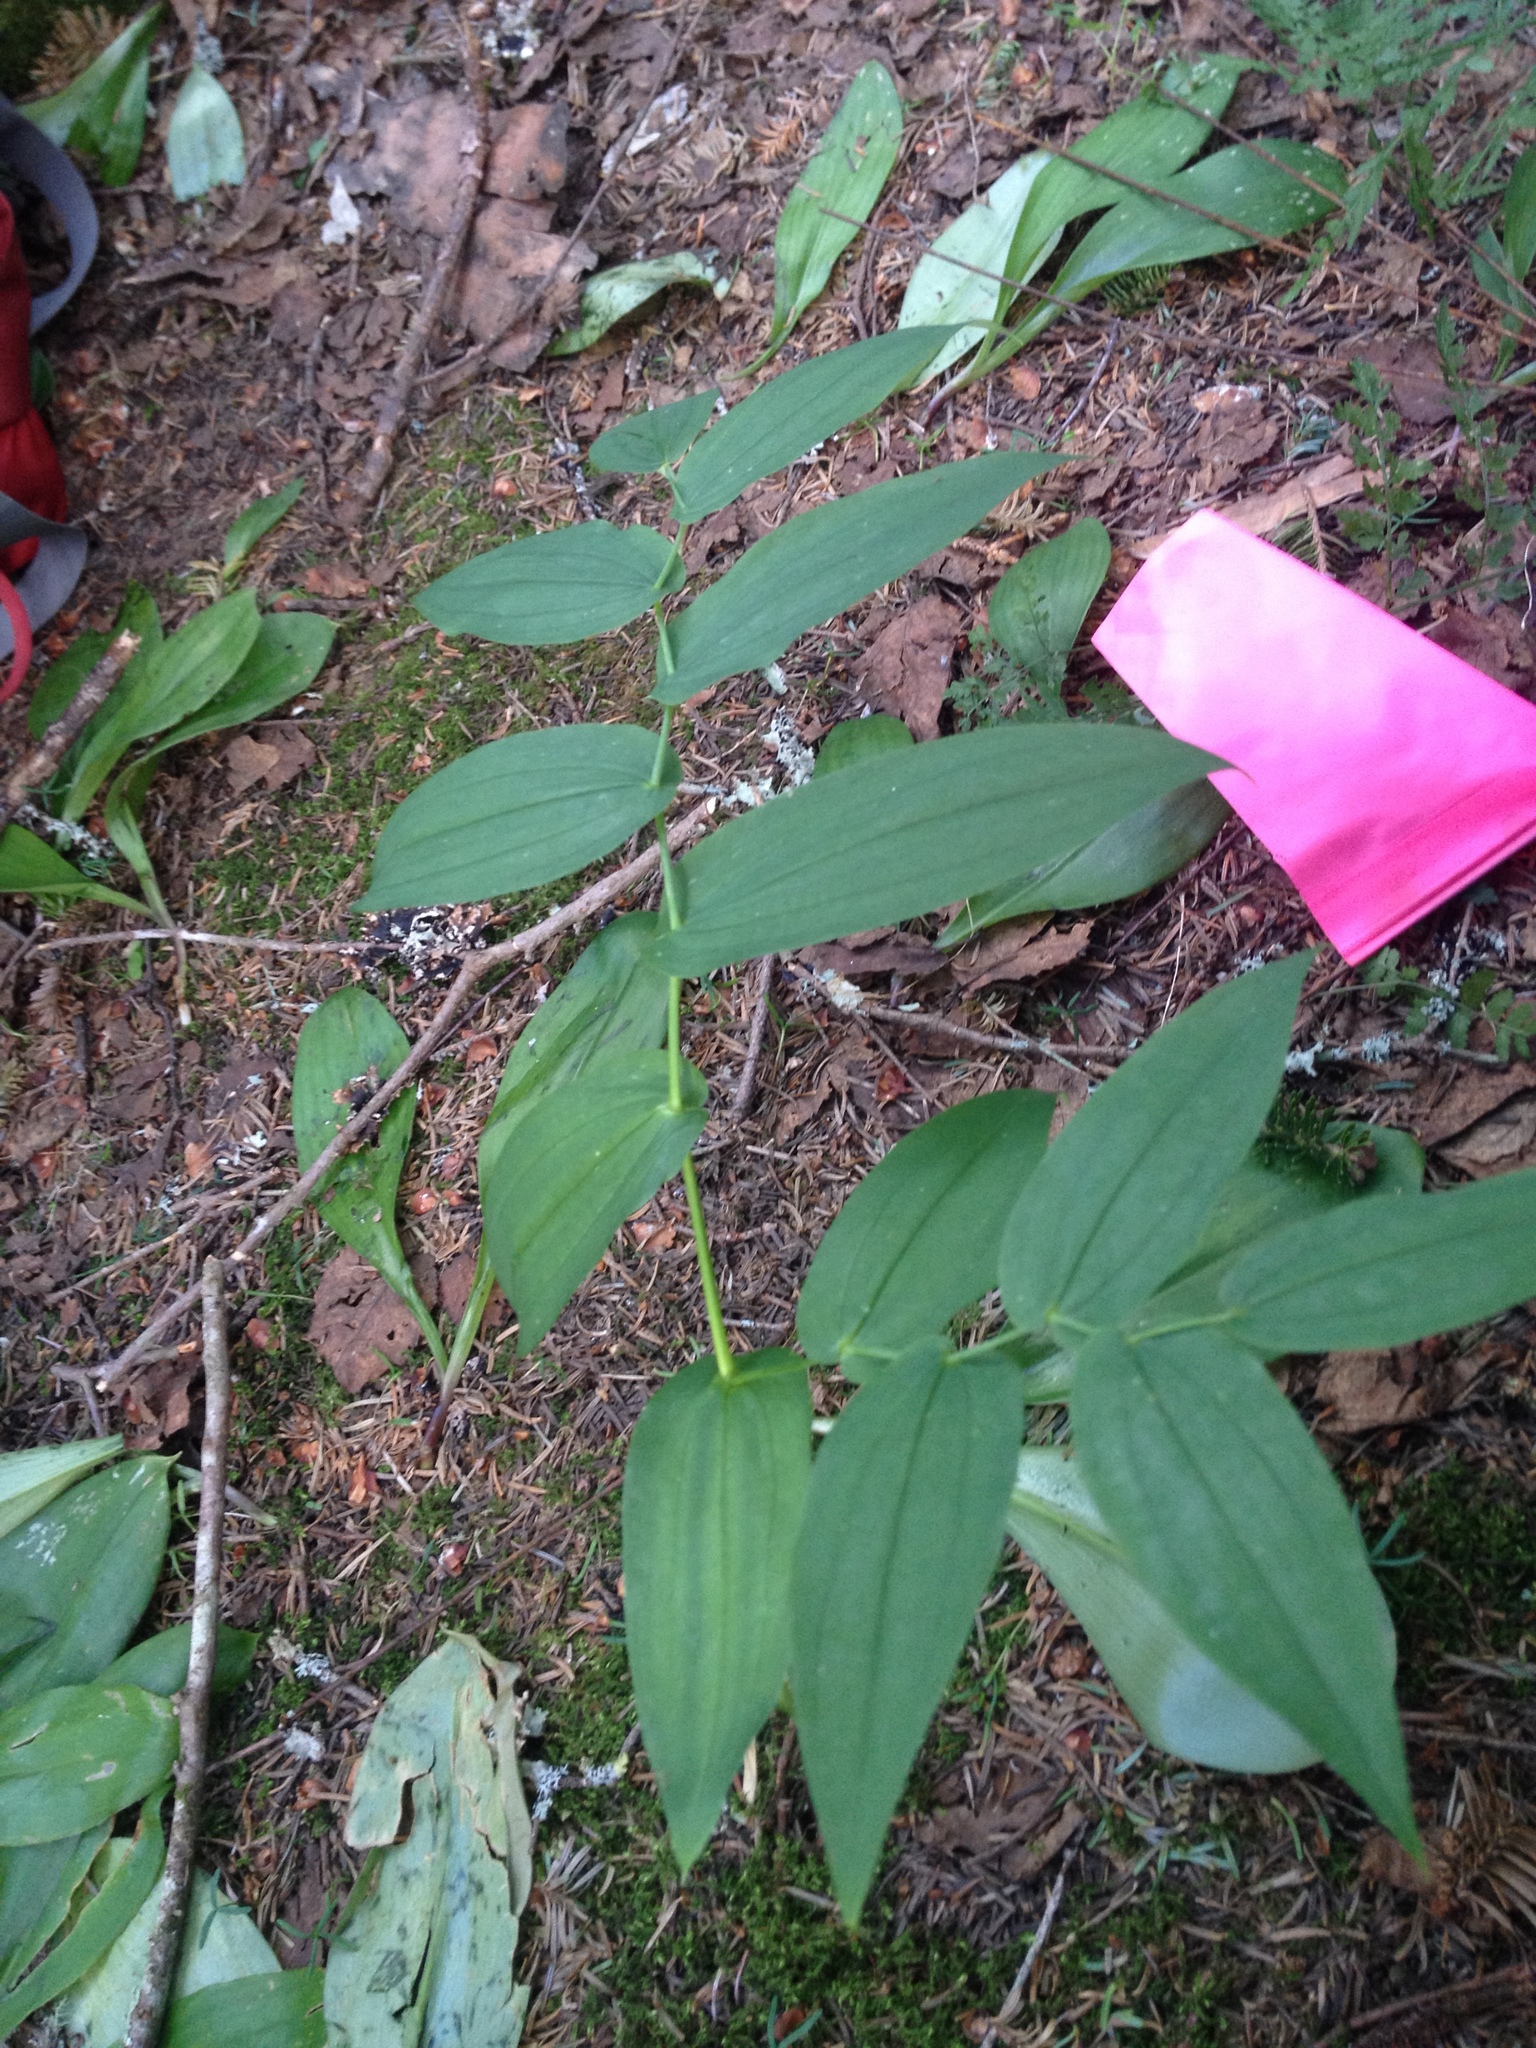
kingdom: Plantae
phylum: Tracheophyta
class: Liliopsida
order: Liliales
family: Liliaceae
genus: Streptopus
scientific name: Streptopus amplexifolius
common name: Clasp twisted stalk
